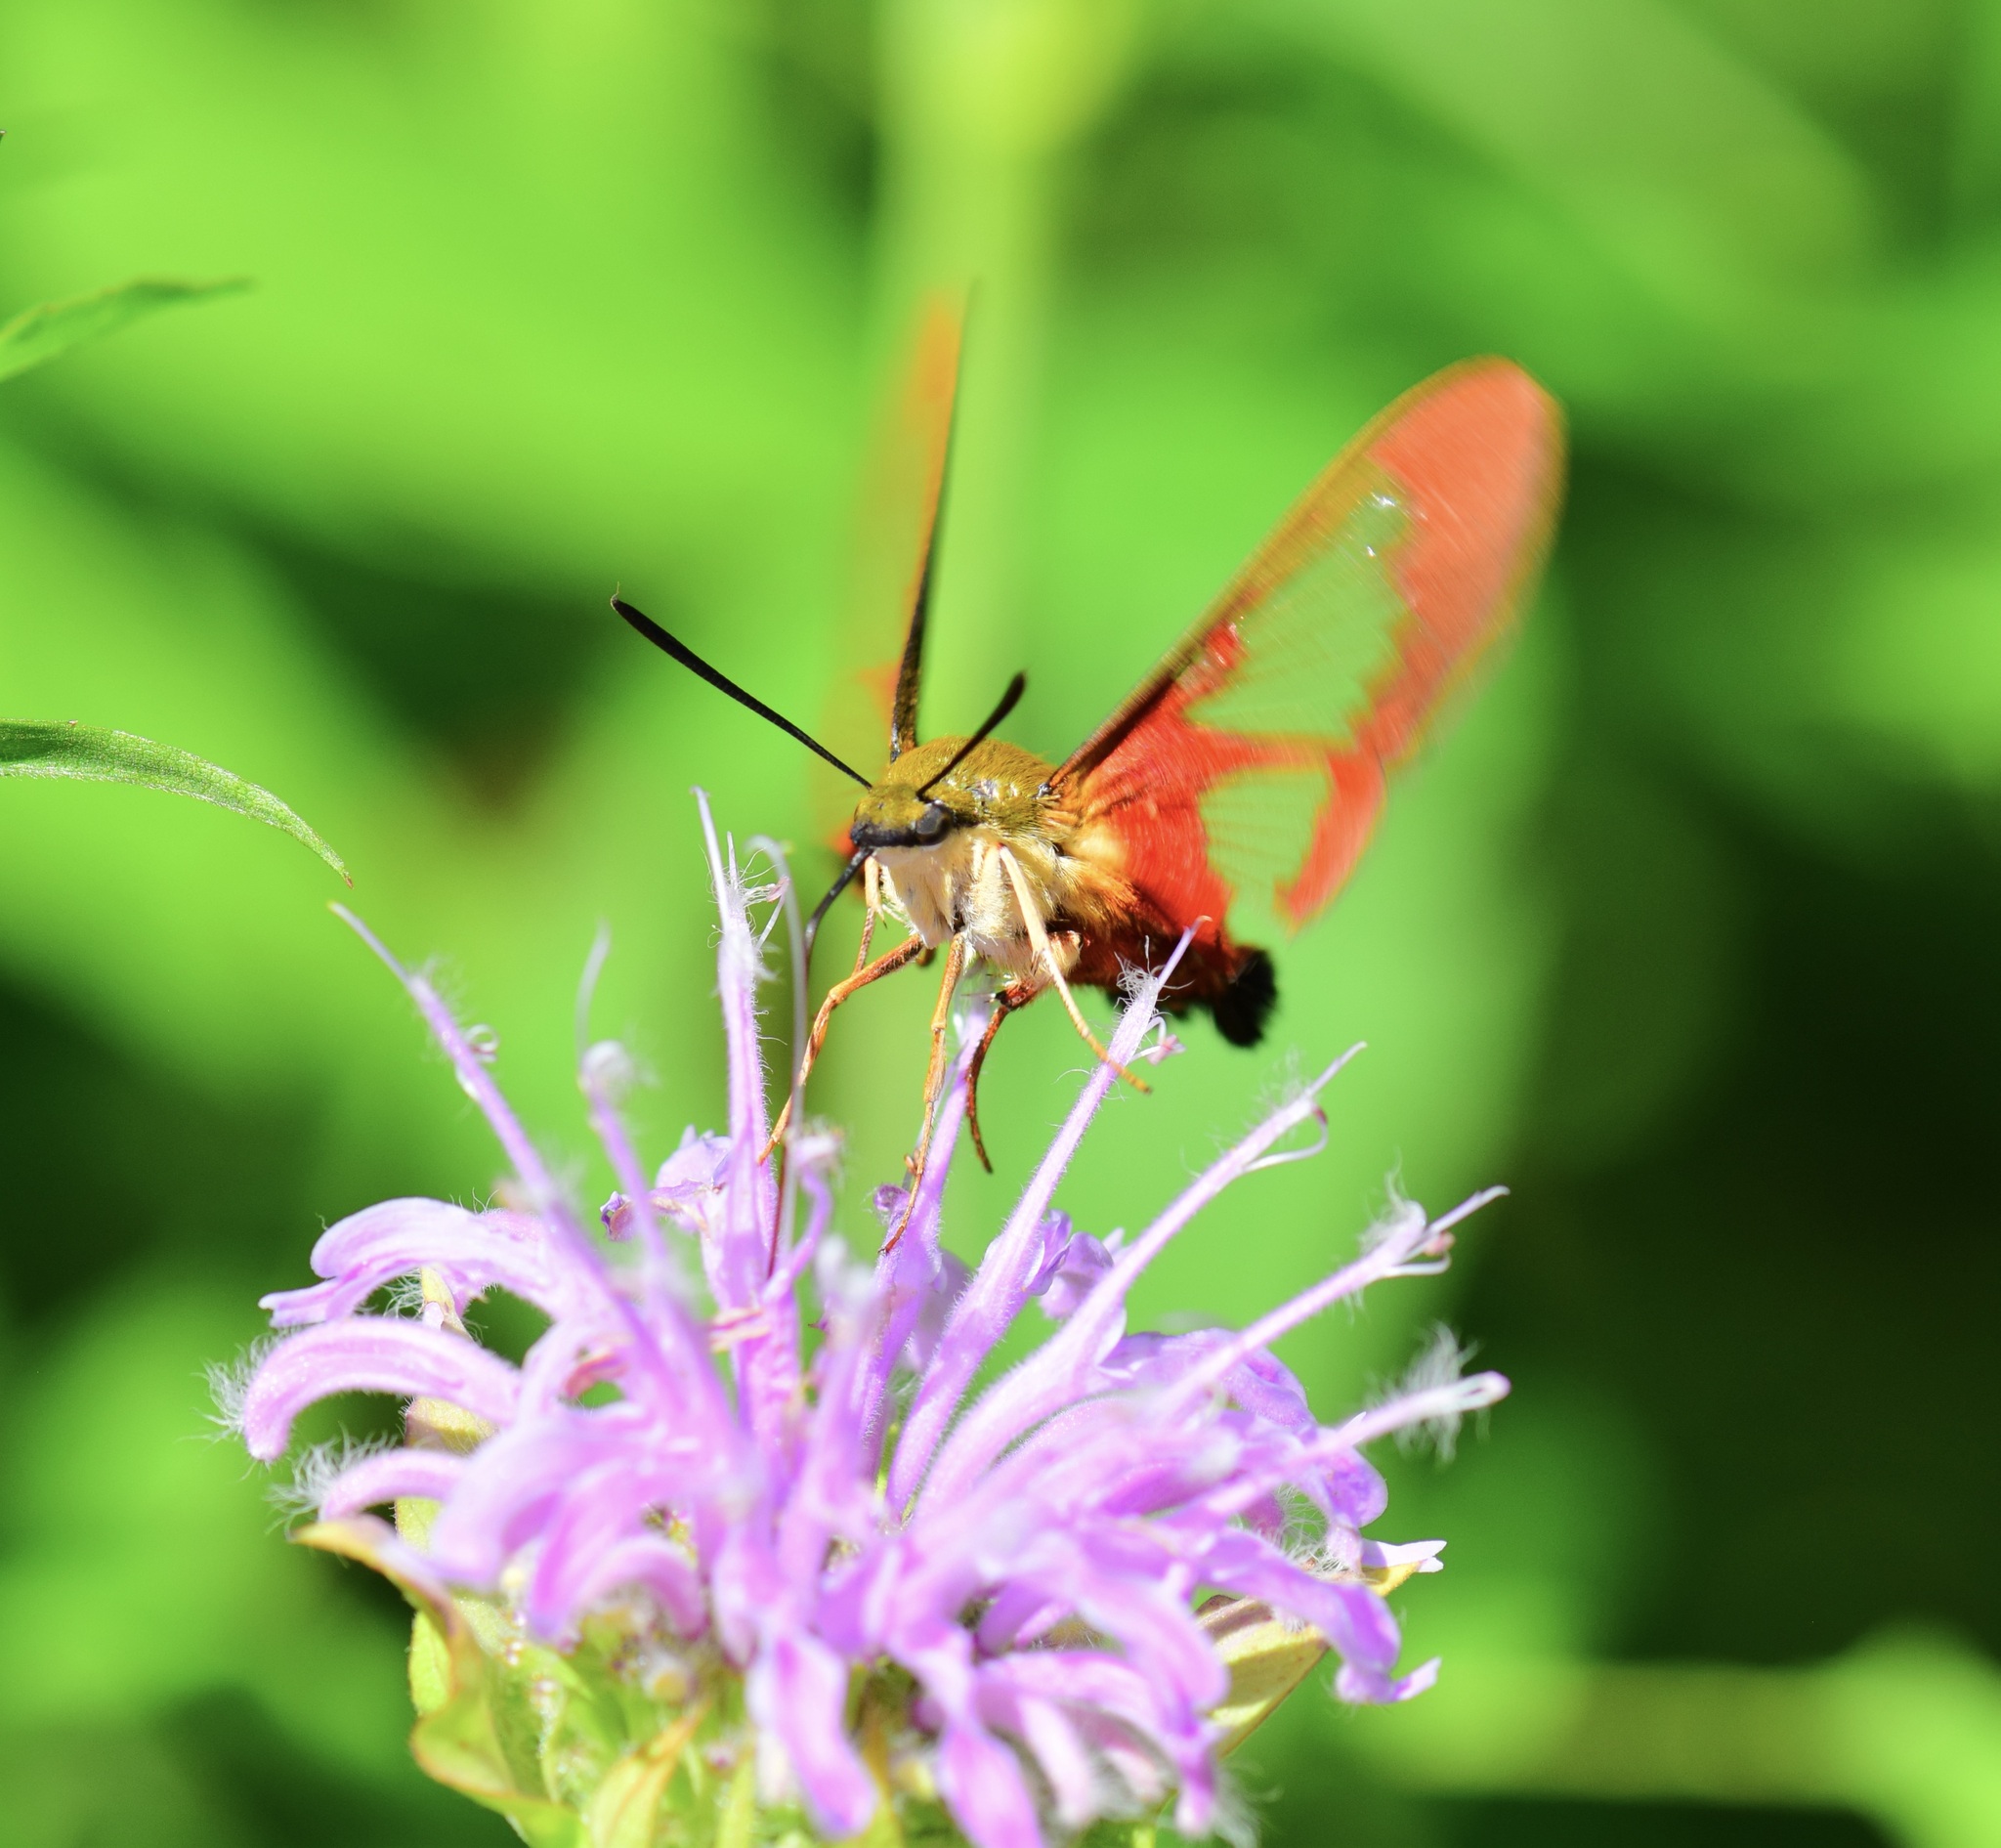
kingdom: Animalia
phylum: Arthropoda
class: Insecta
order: Lepidoptera
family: Sphingidae
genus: Hemaris
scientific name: Hemaris thysbe
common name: Common clear-wing
